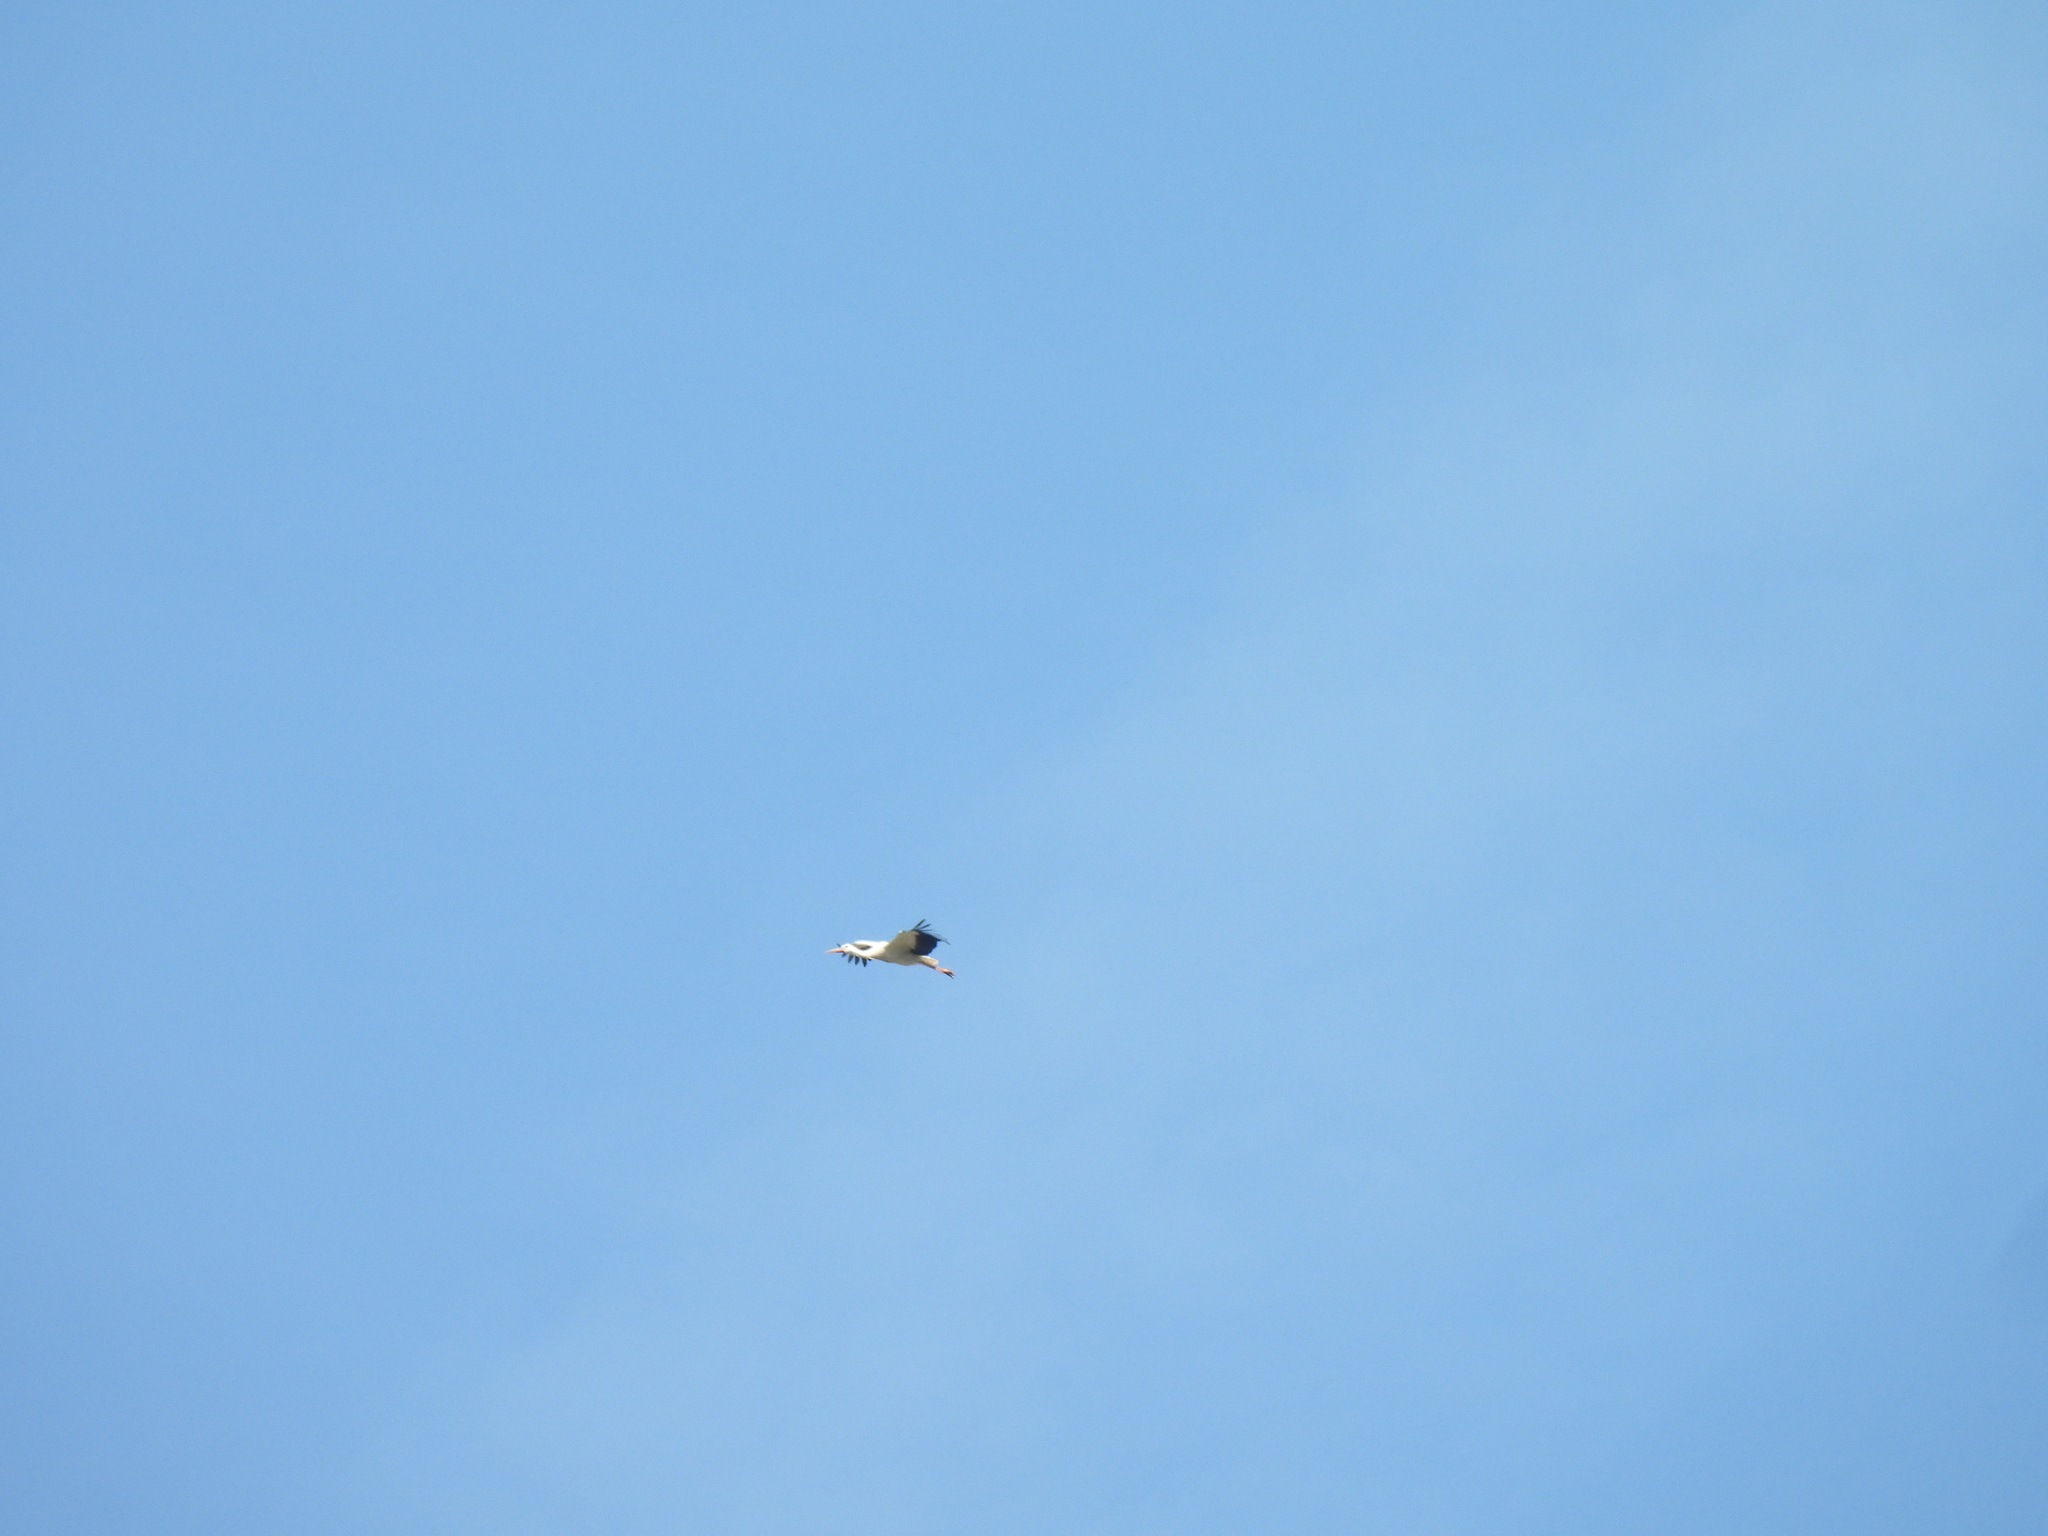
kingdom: Animalia
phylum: Chordata
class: Aves
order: Ciconiiformes
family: Ciconiidae
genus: Ciconia
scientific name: Ciconia ciconia
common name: White stork
